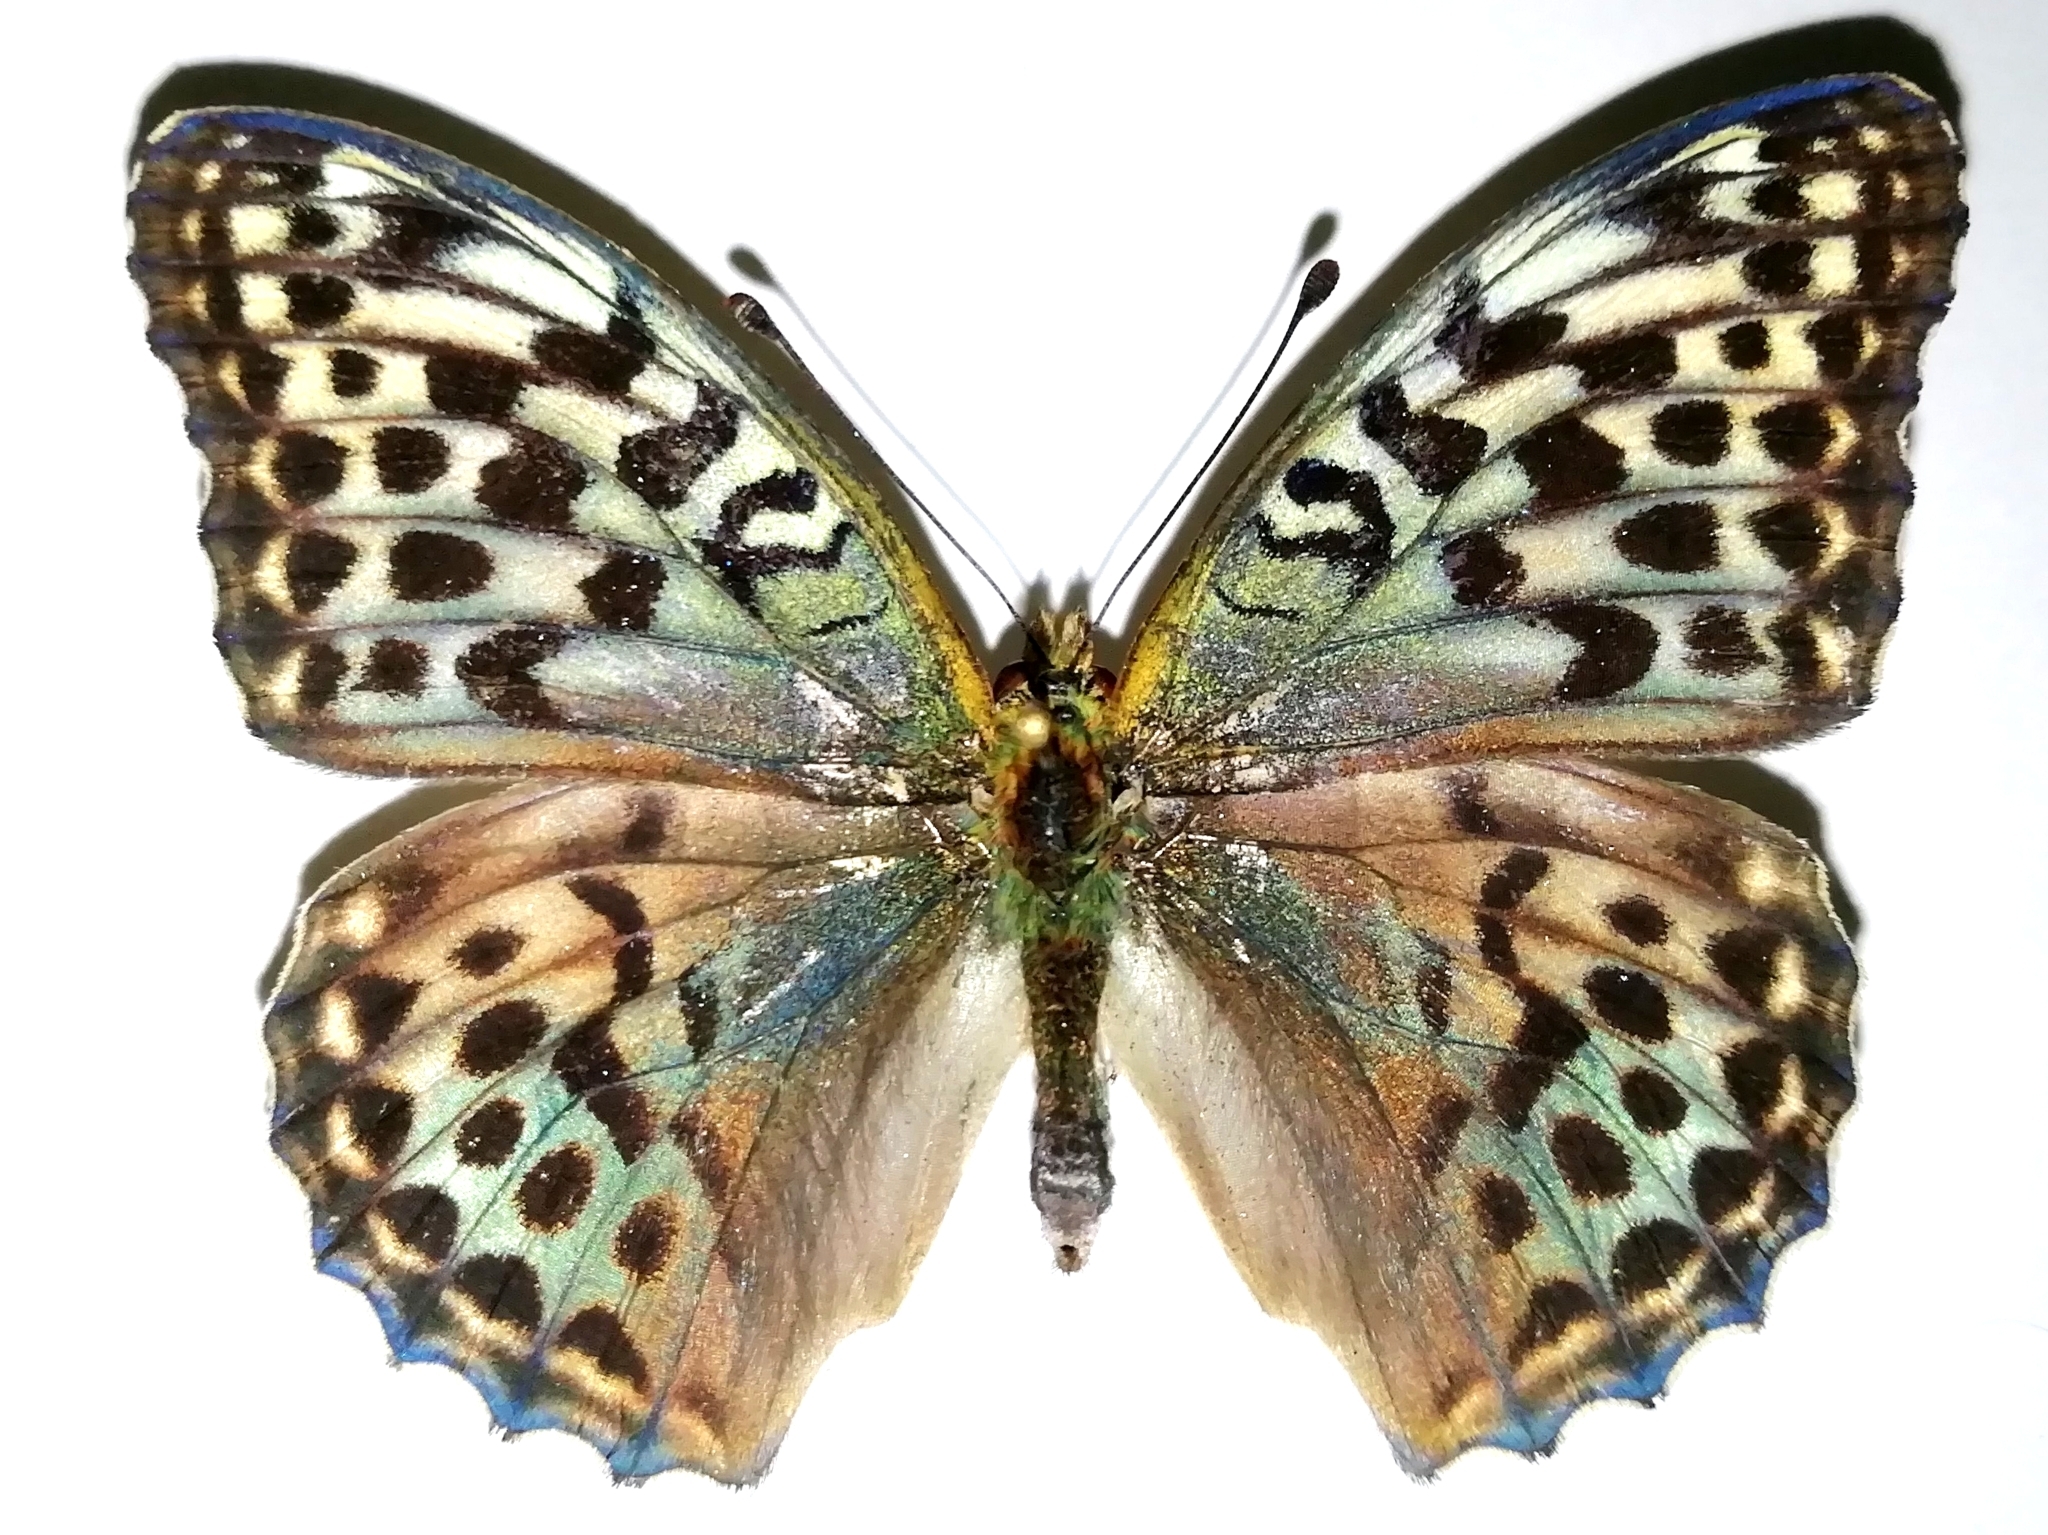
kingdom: Animalia
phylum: Arthropoda
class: Insecta
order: Lepidoptera
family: Nymphalidae
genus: Argynnis
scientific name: Argynnis paphia
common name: Silver-washed fritillary
